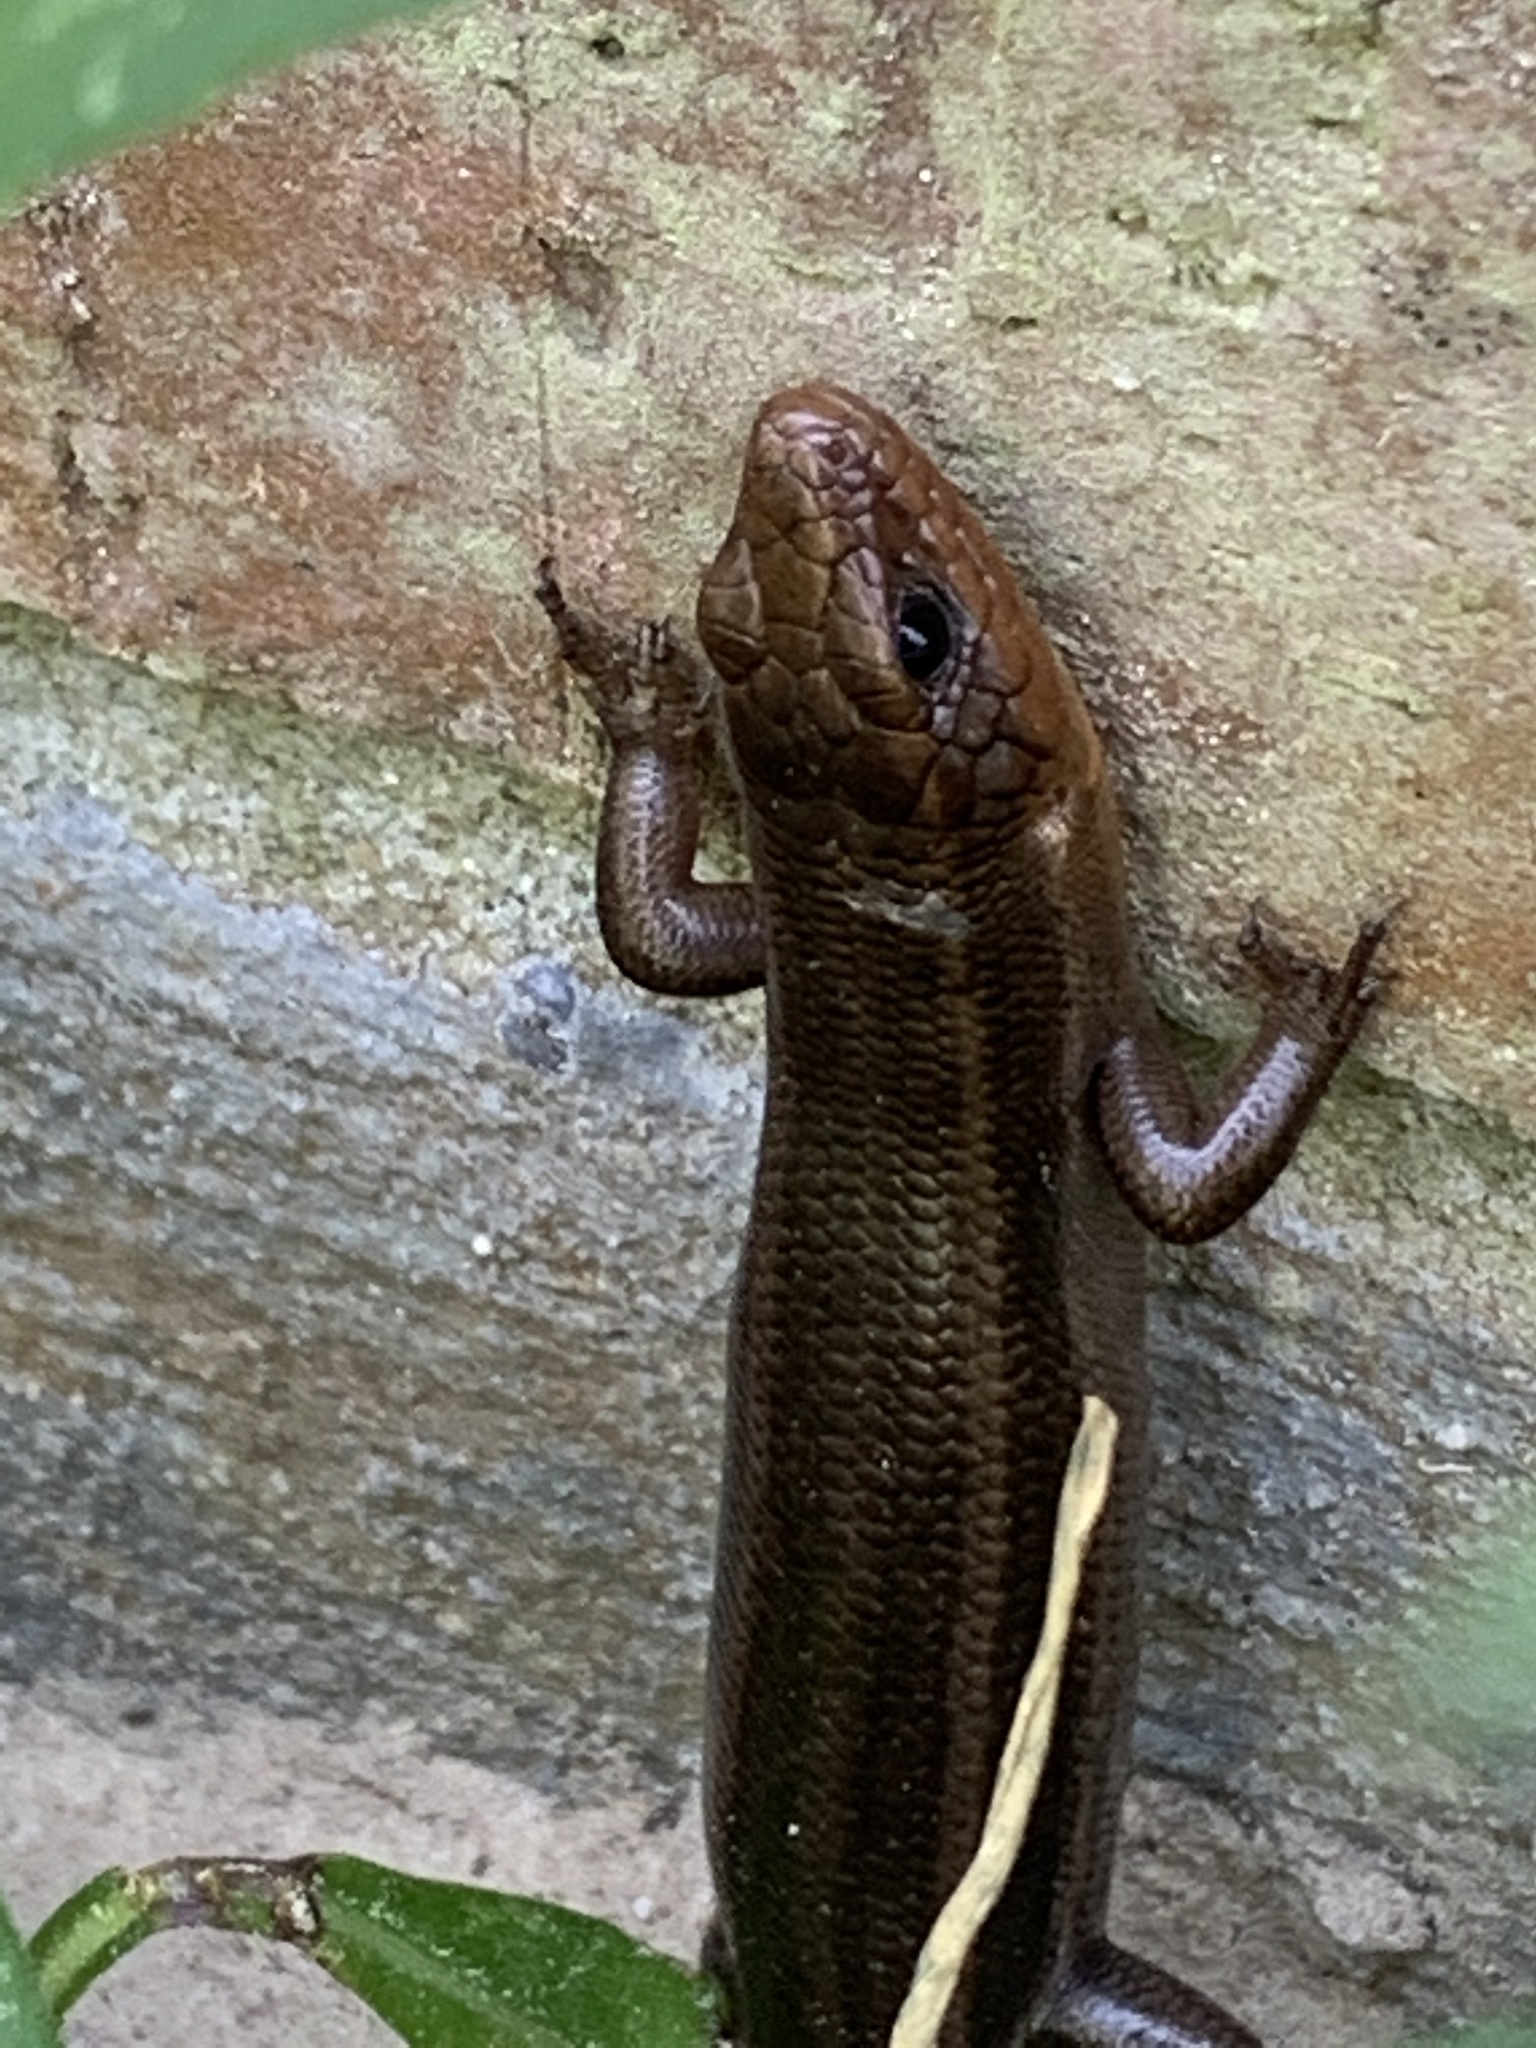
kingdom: Animalia
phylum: Chordata
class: Squamata
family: Scincidae
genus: Plestiodon
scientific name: Plestiodon fasciatus
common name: Five-lined skink
